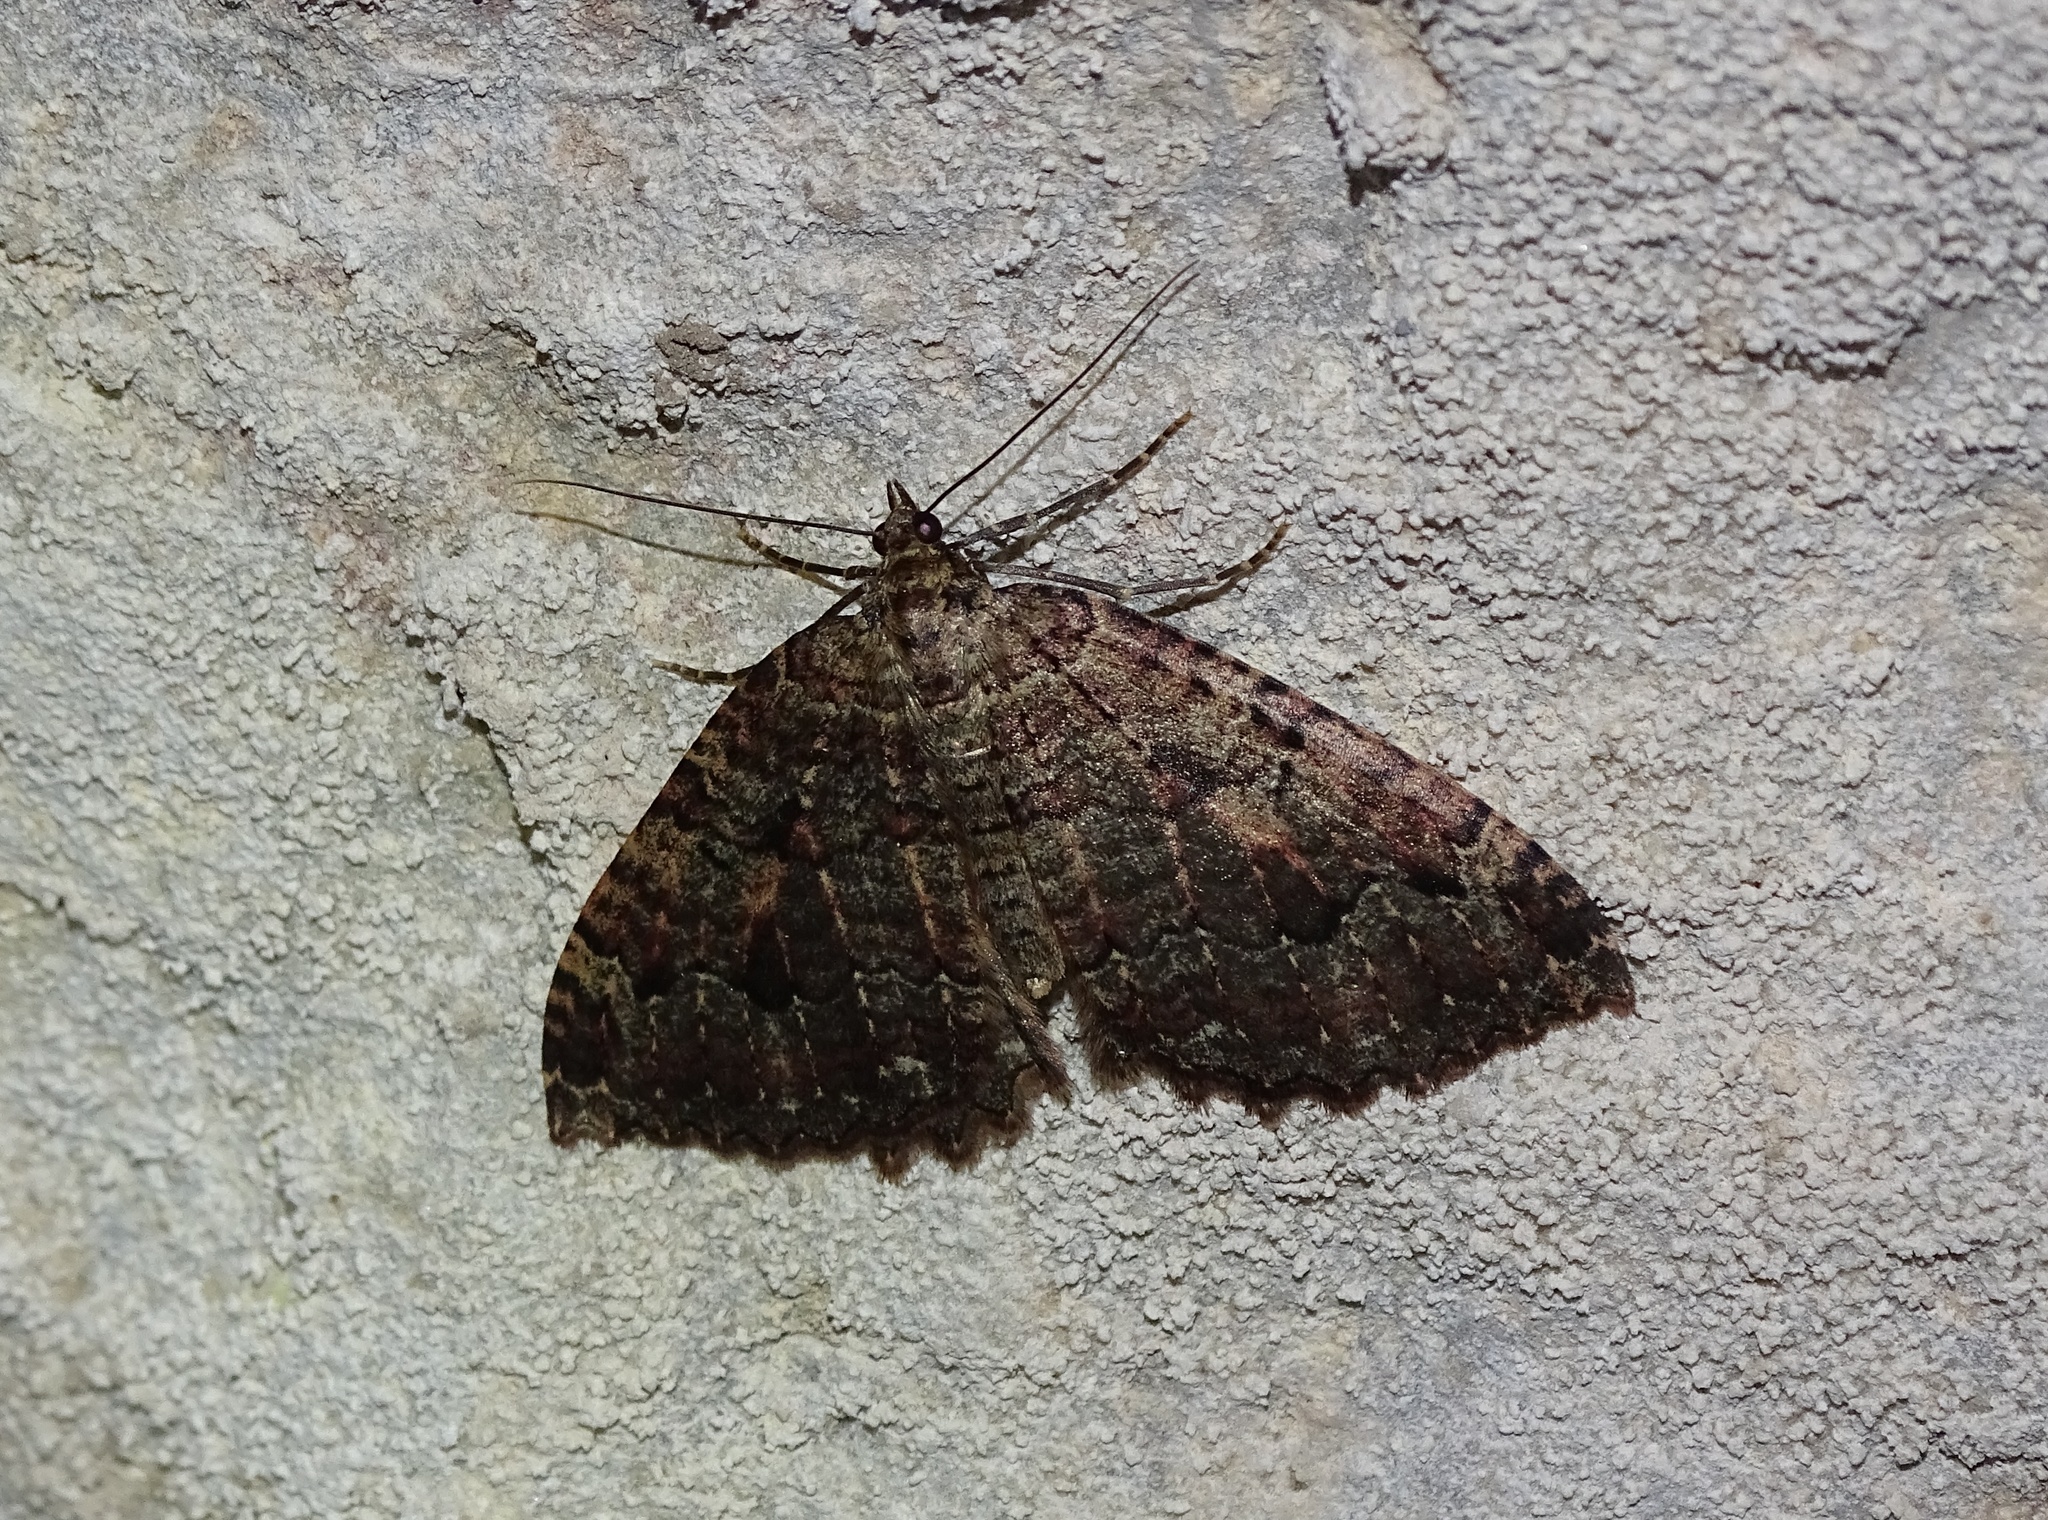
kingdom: Animalia
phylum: Arthropoda
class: Insecta
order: Lepidoptera
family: Geometridae
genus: Triphosa
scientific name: Triphosa dubitata
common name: Tissue
